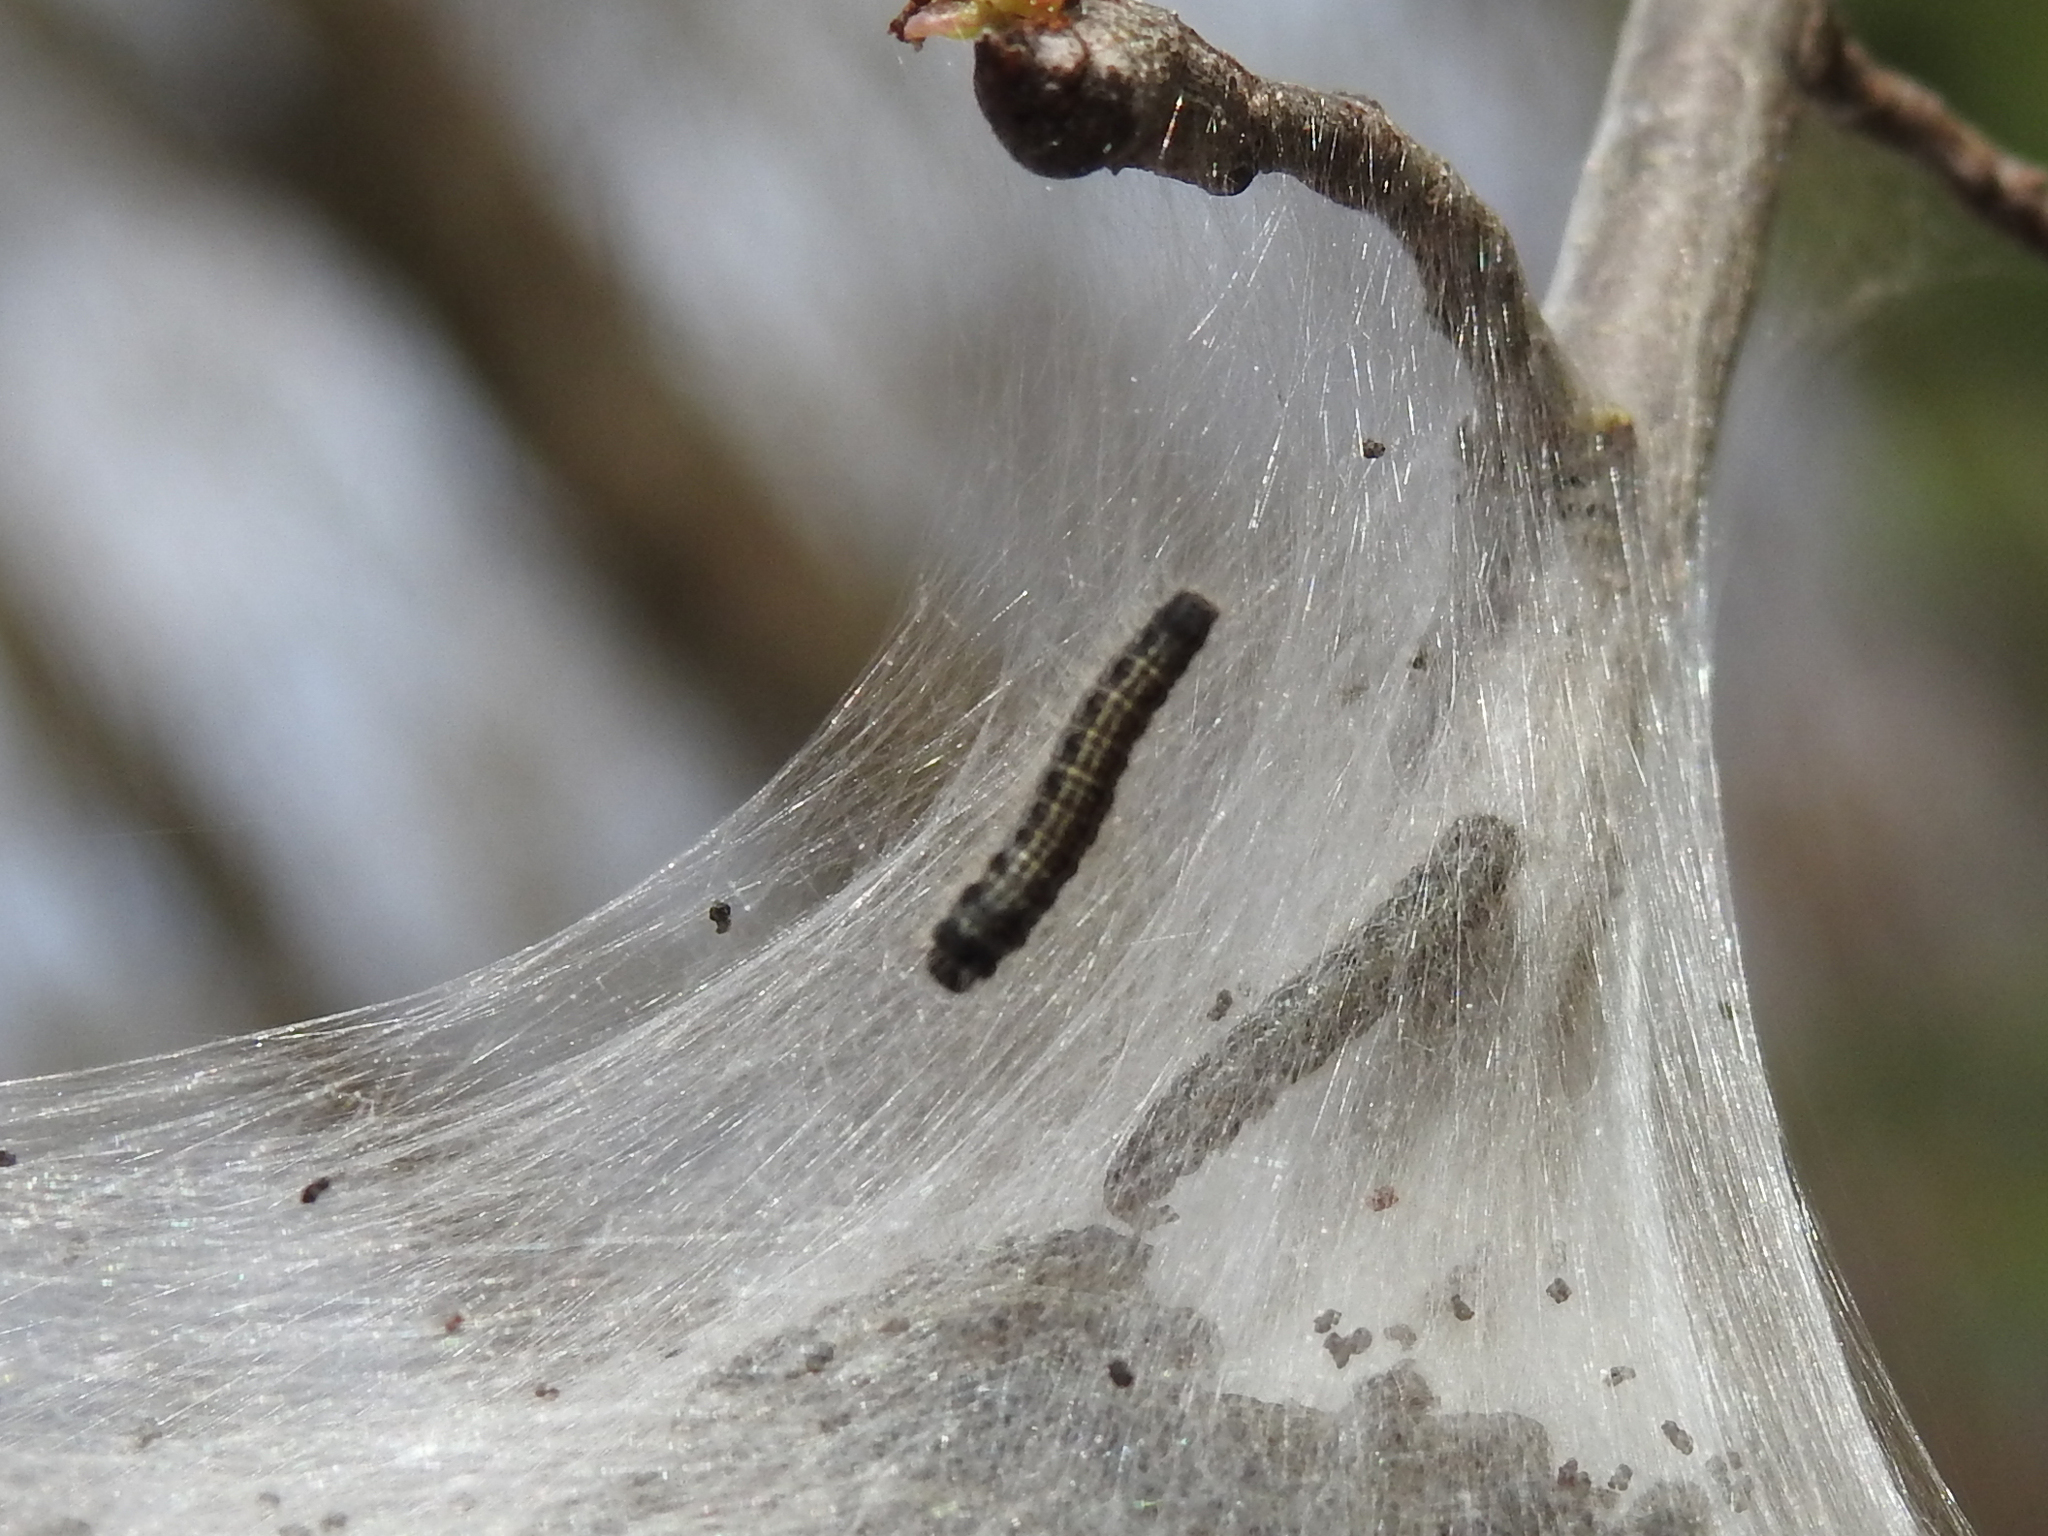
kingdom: Animalia
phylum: Arthropoda
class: Insecta
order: Lepidoptera
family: Lasiocampidae
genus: Malacosoma
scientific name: Malacosoma americana
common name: Eastern tent caterpillar moth
